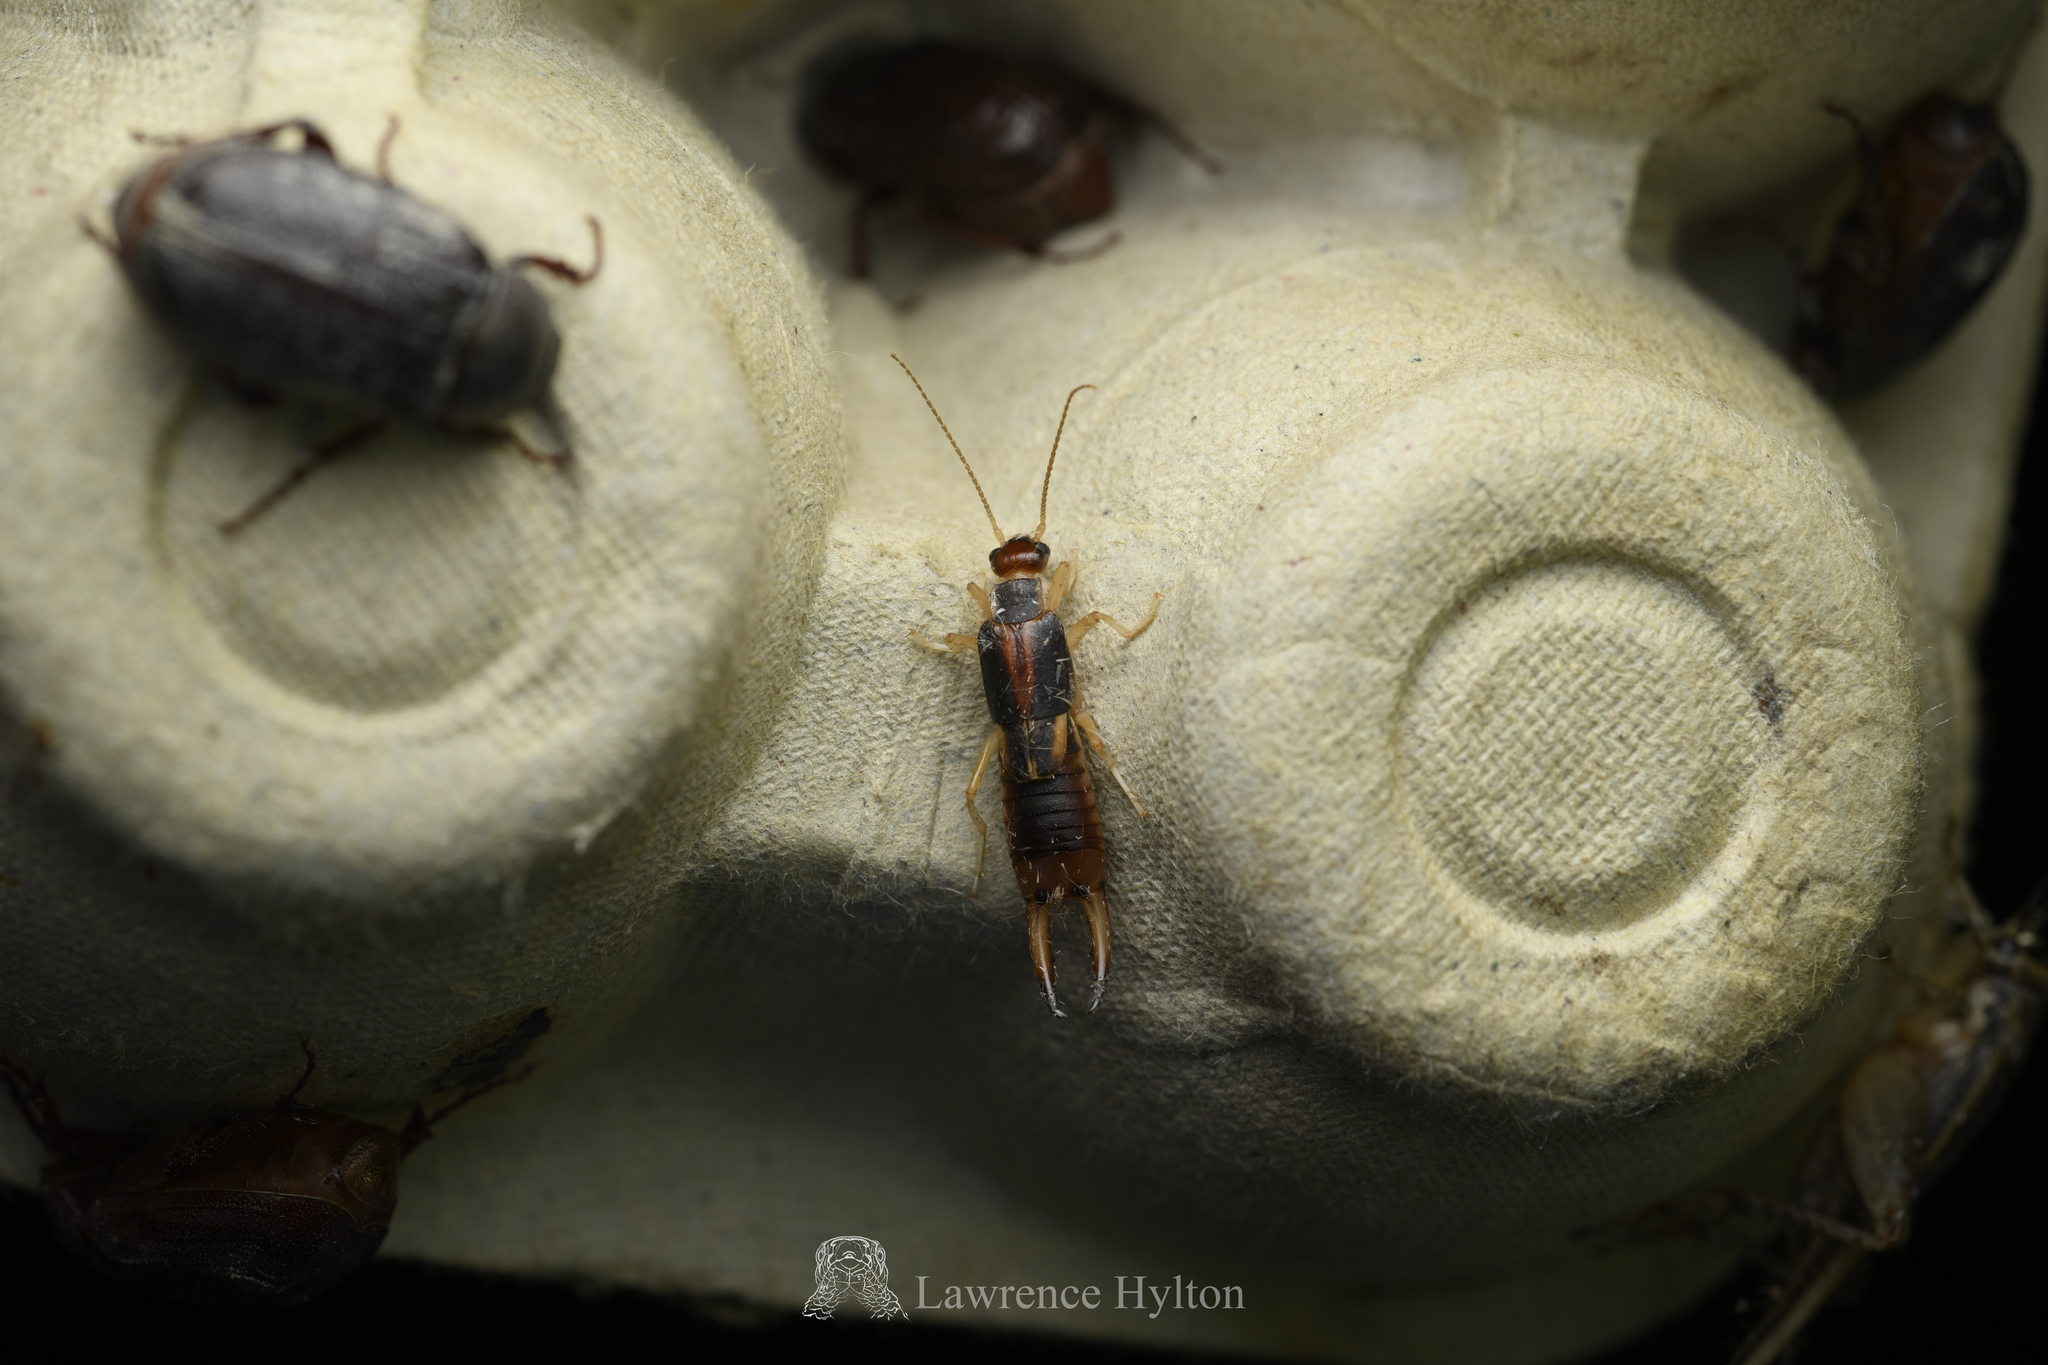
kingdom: Animalia
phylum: Arthropoda
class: Insecta
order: Dermaptera
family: Labiduridae
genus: Labidura
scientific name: Labidura riparia
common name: Striped earwig
